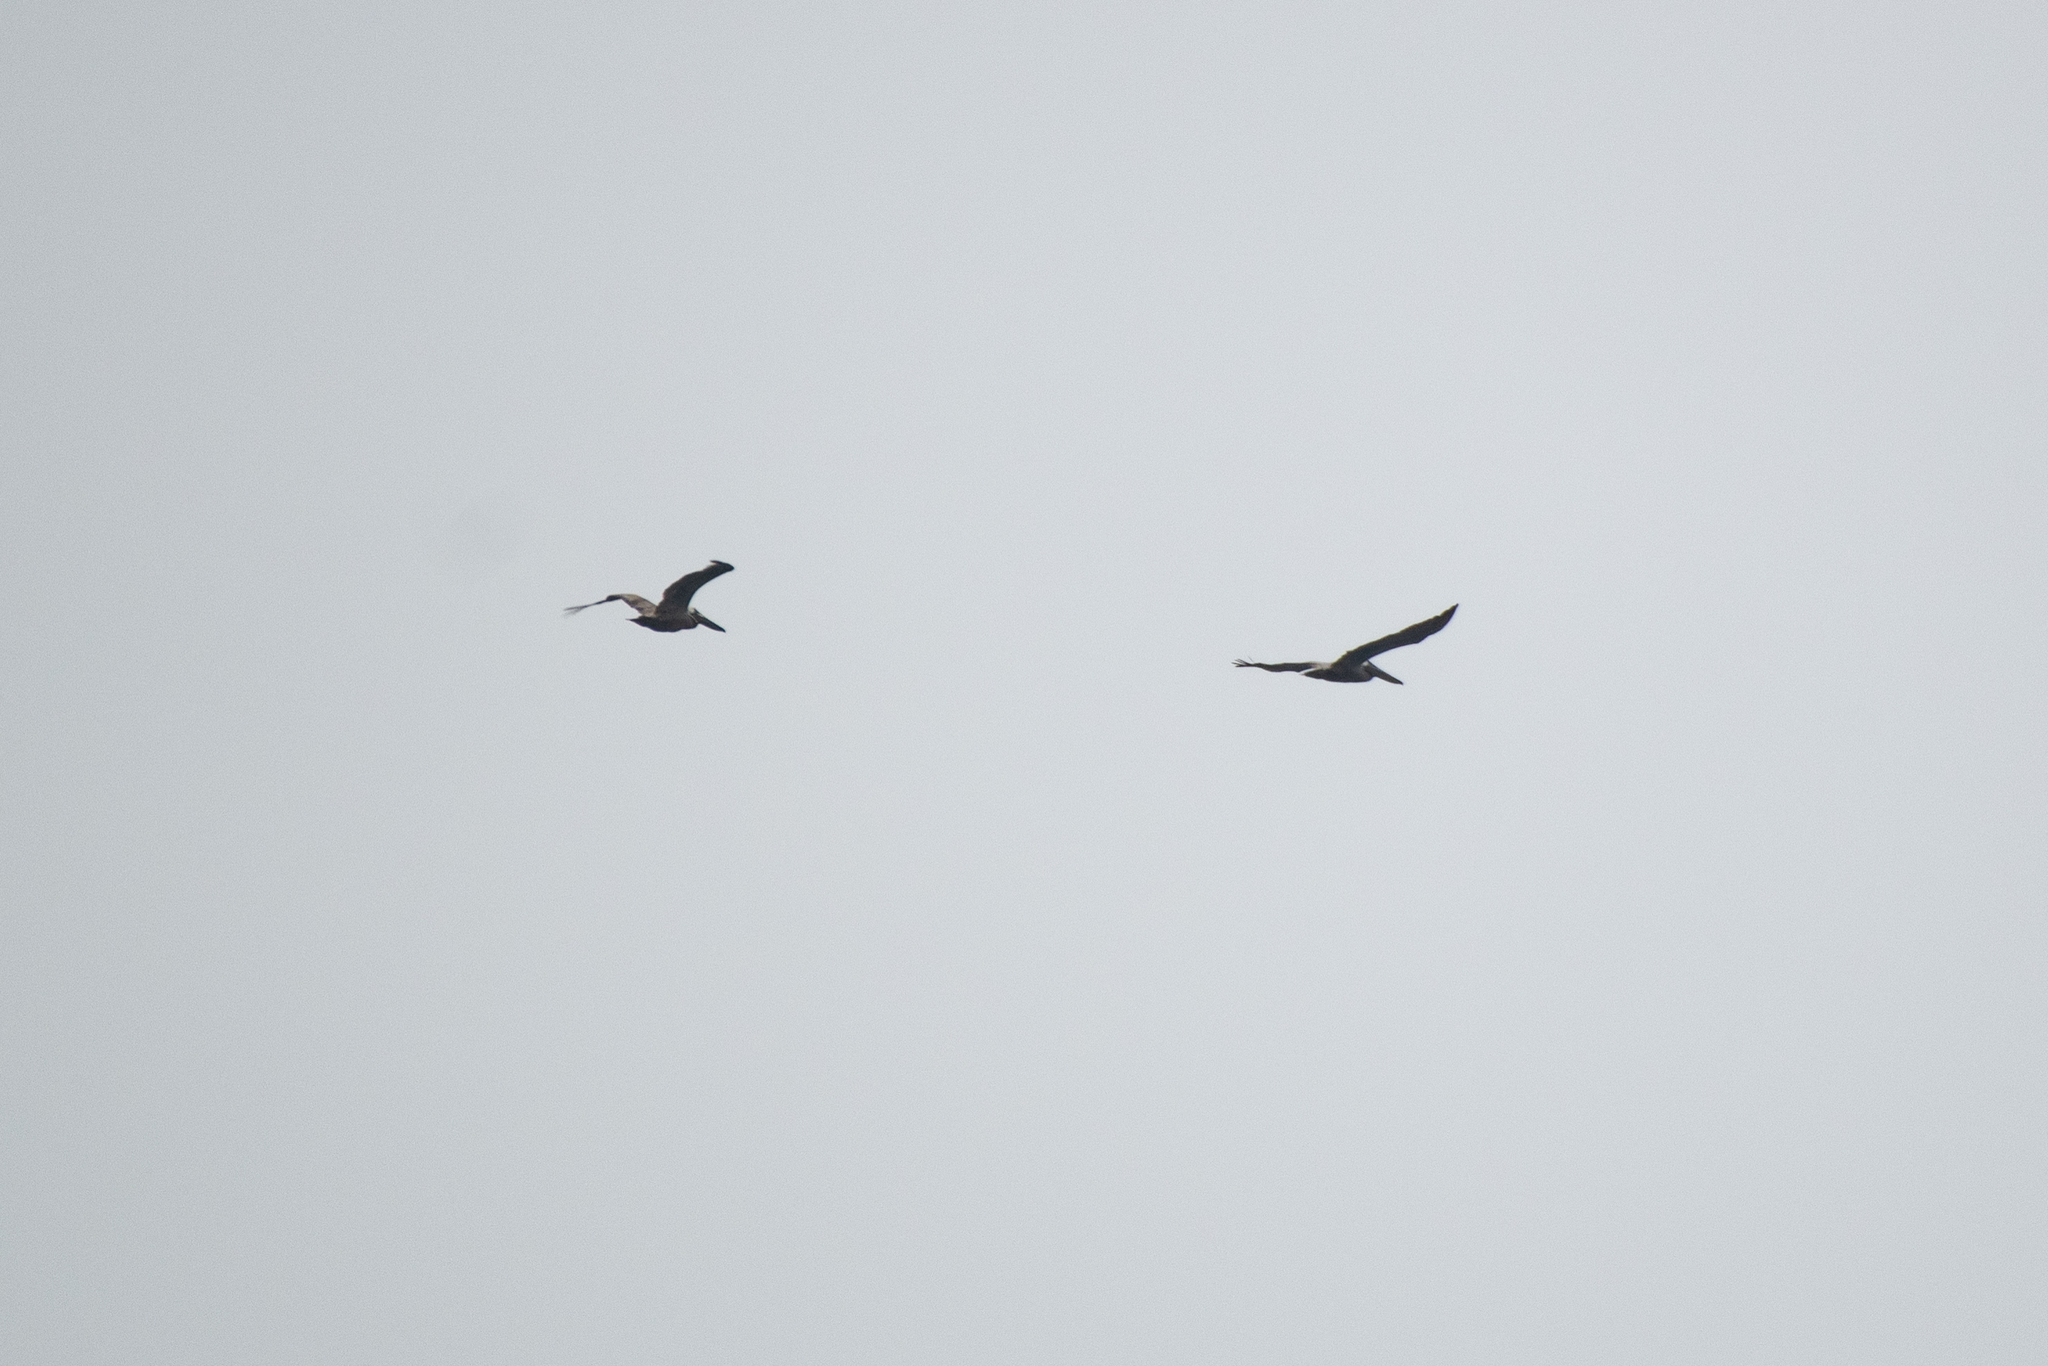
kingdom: Animalia
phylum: Chordata
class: Aves
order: Pelecaniformes
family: Pelecanidae
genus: Pelecanus
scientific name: Pelecanus occidentalis
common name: Brown pelican
